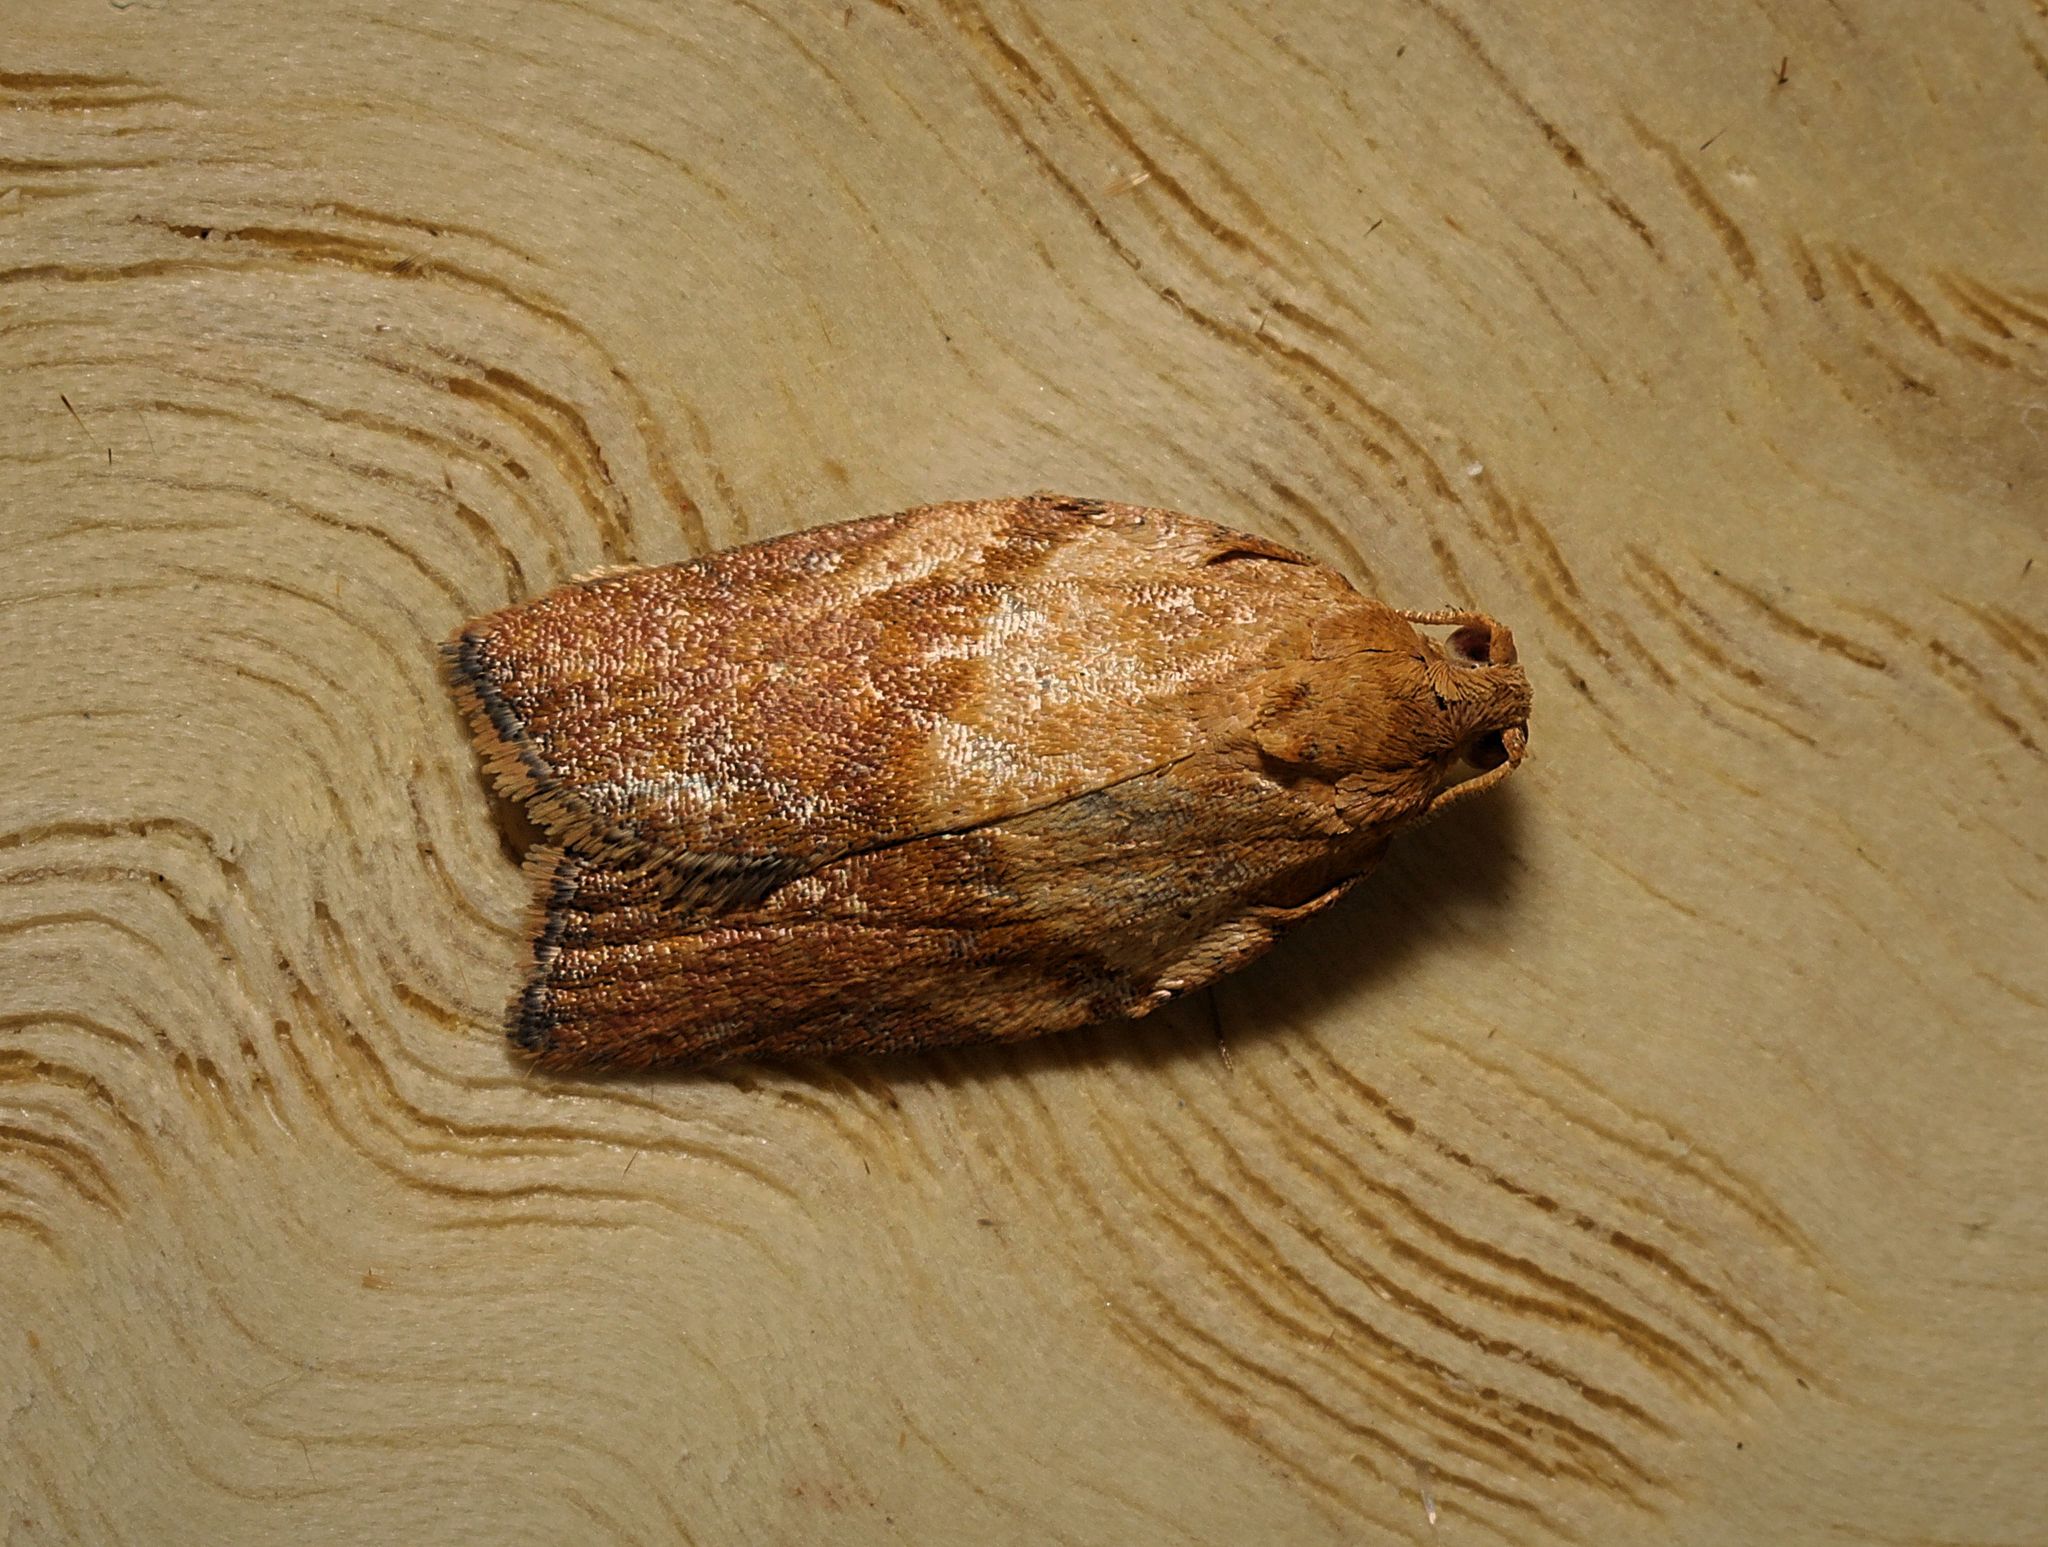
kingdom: Animalia
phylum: Arthropoda
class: Insecta
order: Lepidoptera
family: Tortricidae
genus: Epiphyas
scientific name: Epiphyas postvittana
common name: Light brown apple moth
